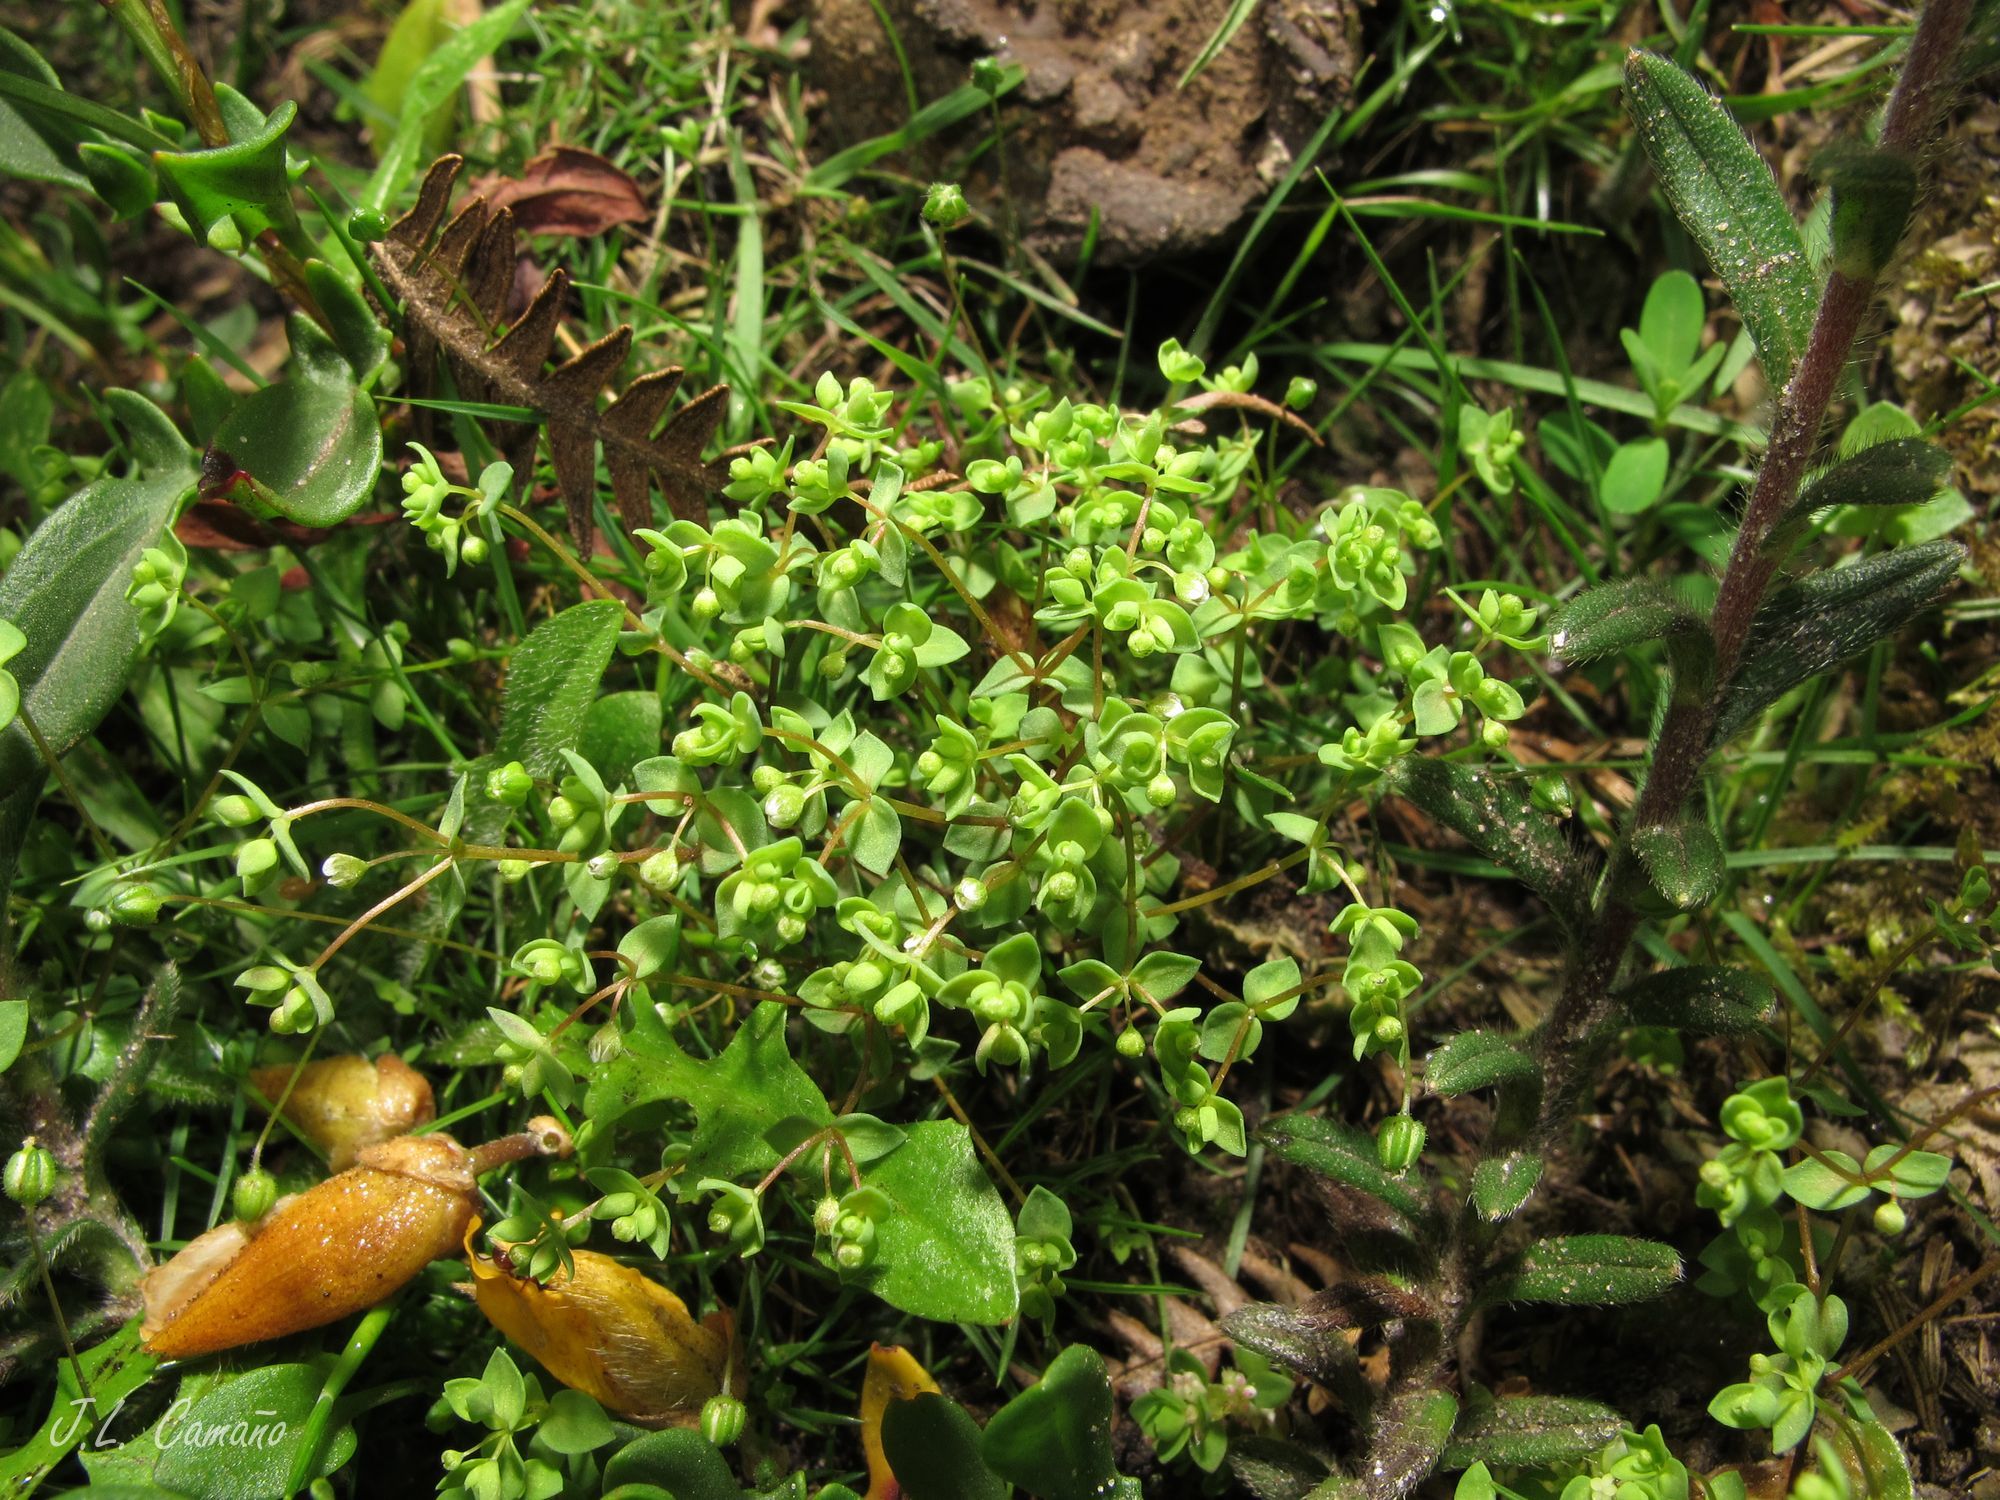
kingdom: Plantae
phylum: Tracheophyta
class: Magnoliopsida
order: Malpighiales
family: Linaceae
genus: Radiola
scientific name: Radiola linoides
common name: Allseed
